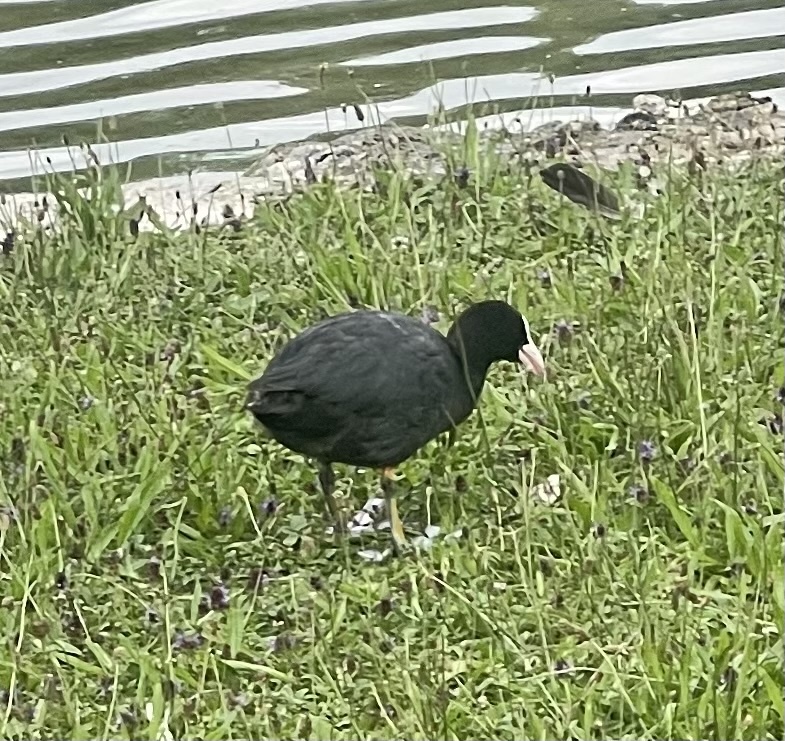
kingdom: Animalia
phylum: Chordata
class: Aves
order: Gruiformes
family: Rallidae
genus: Fulica
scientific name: Fulica atra
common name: Eurasian coot
